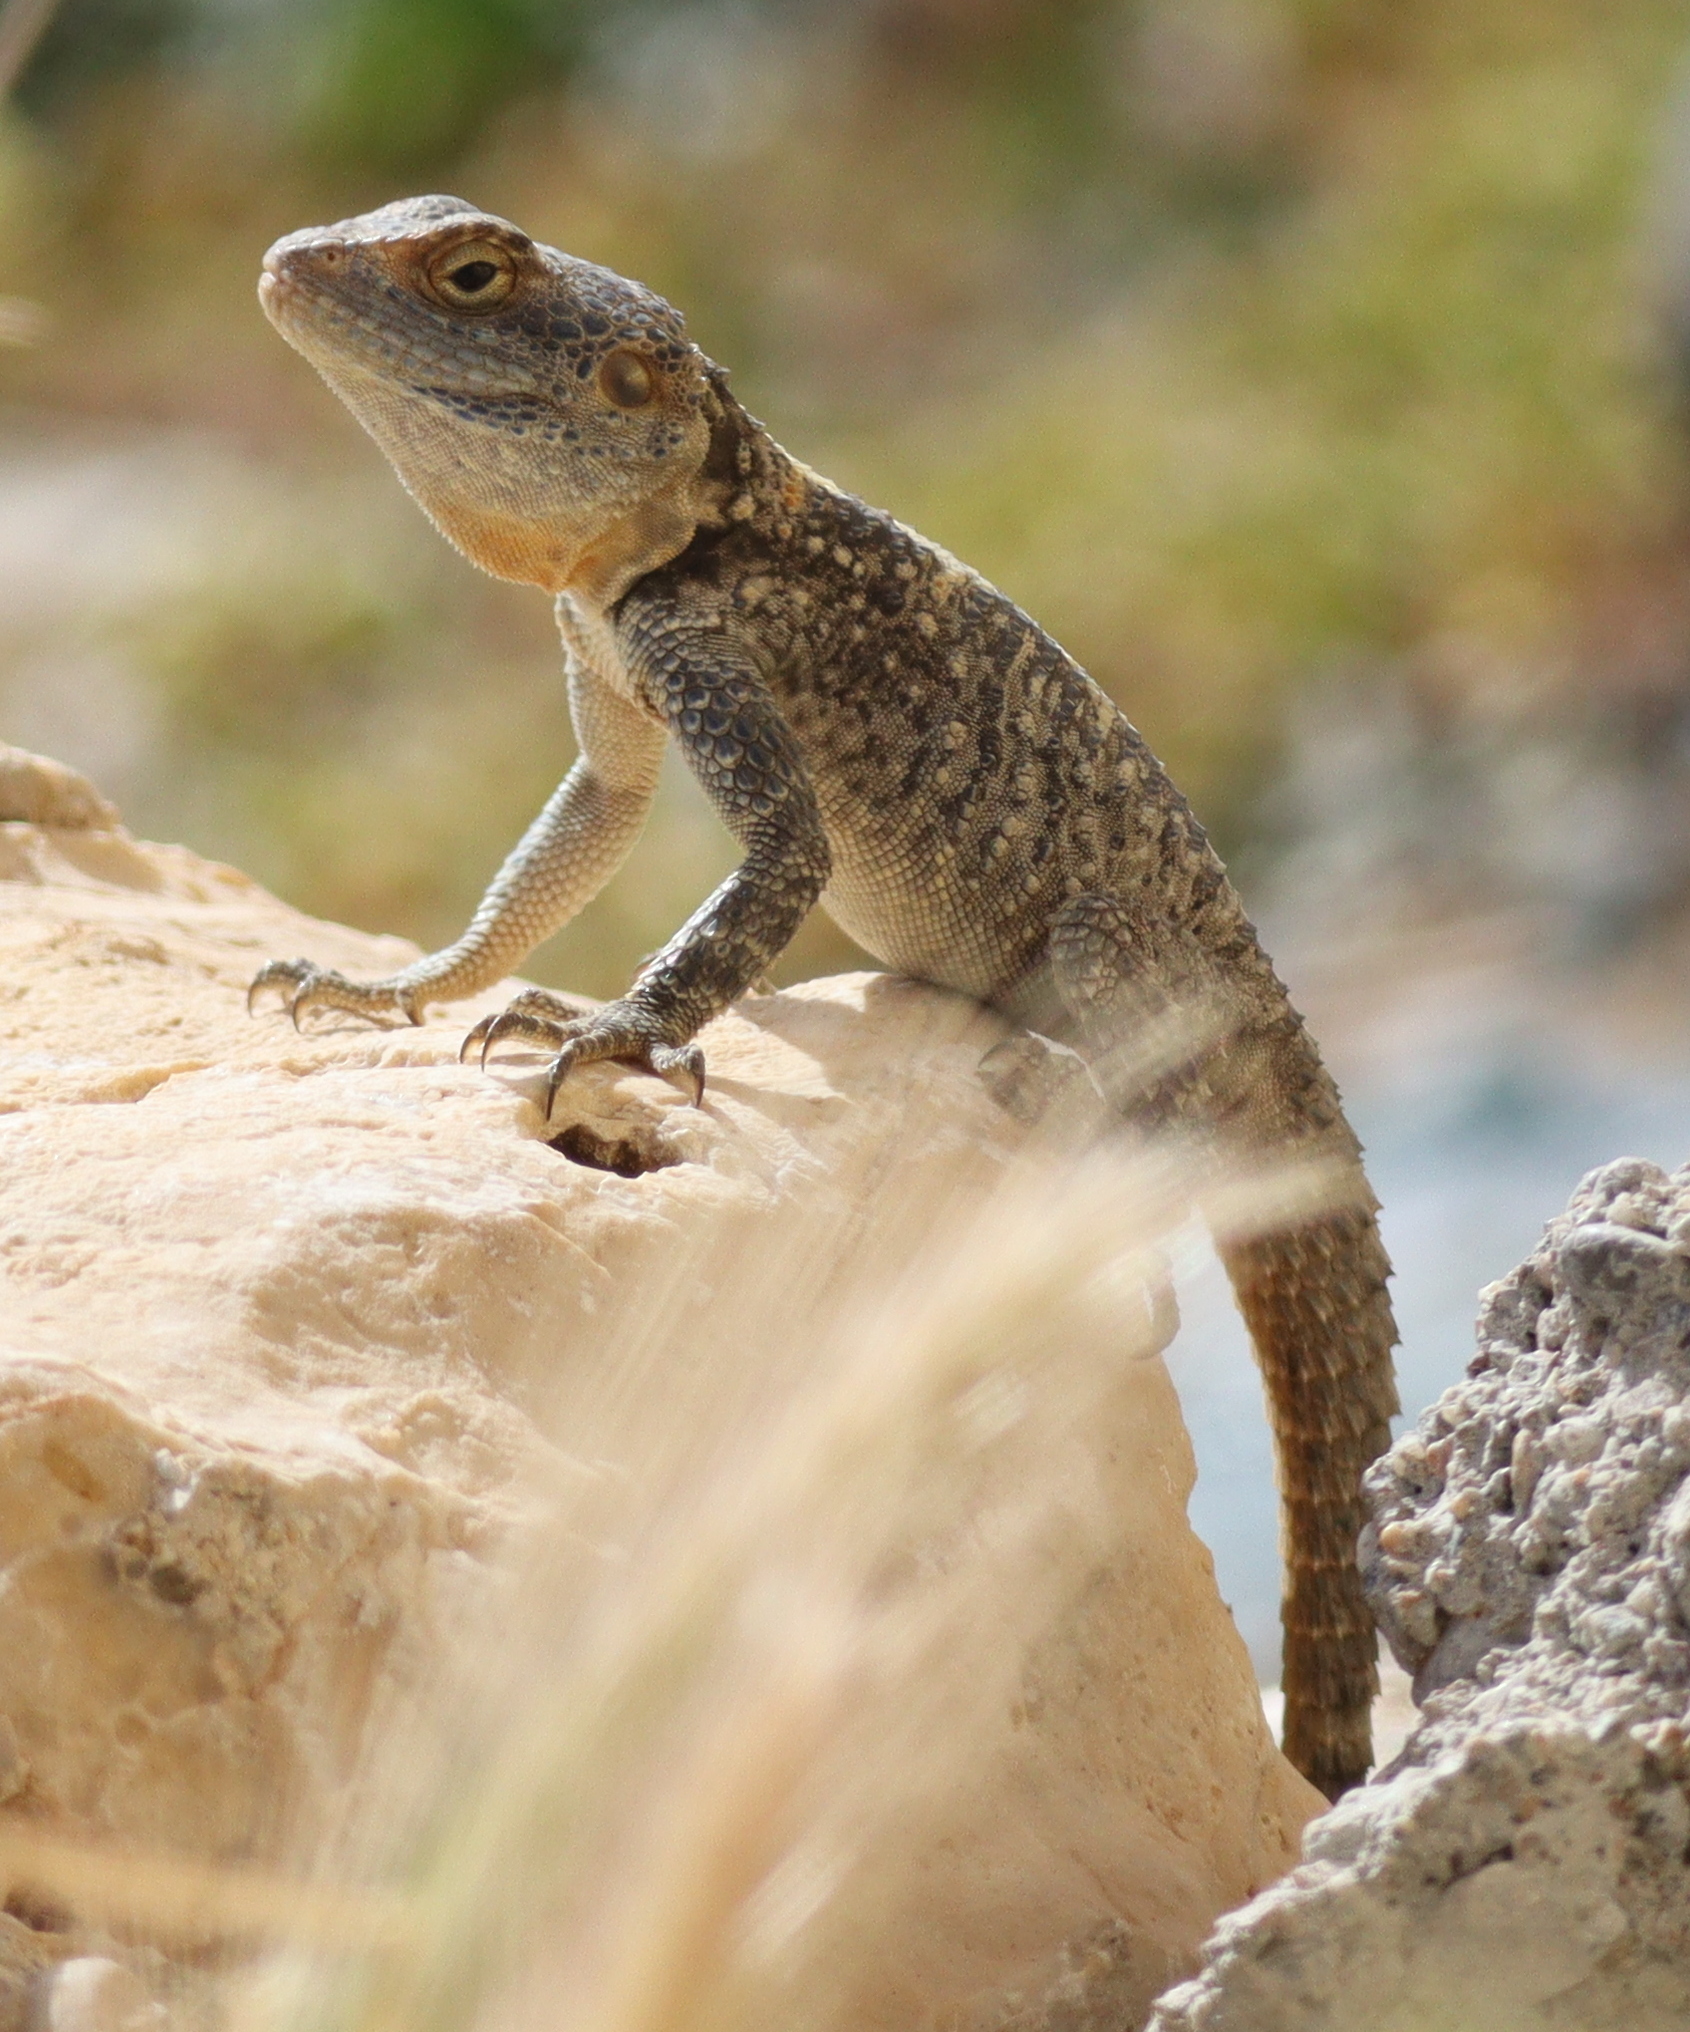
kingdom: Animalia
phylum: Chordata
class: Squamata
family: Agamidae
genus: Stellagama
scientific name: Stellagama stellio
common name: Starred agama
